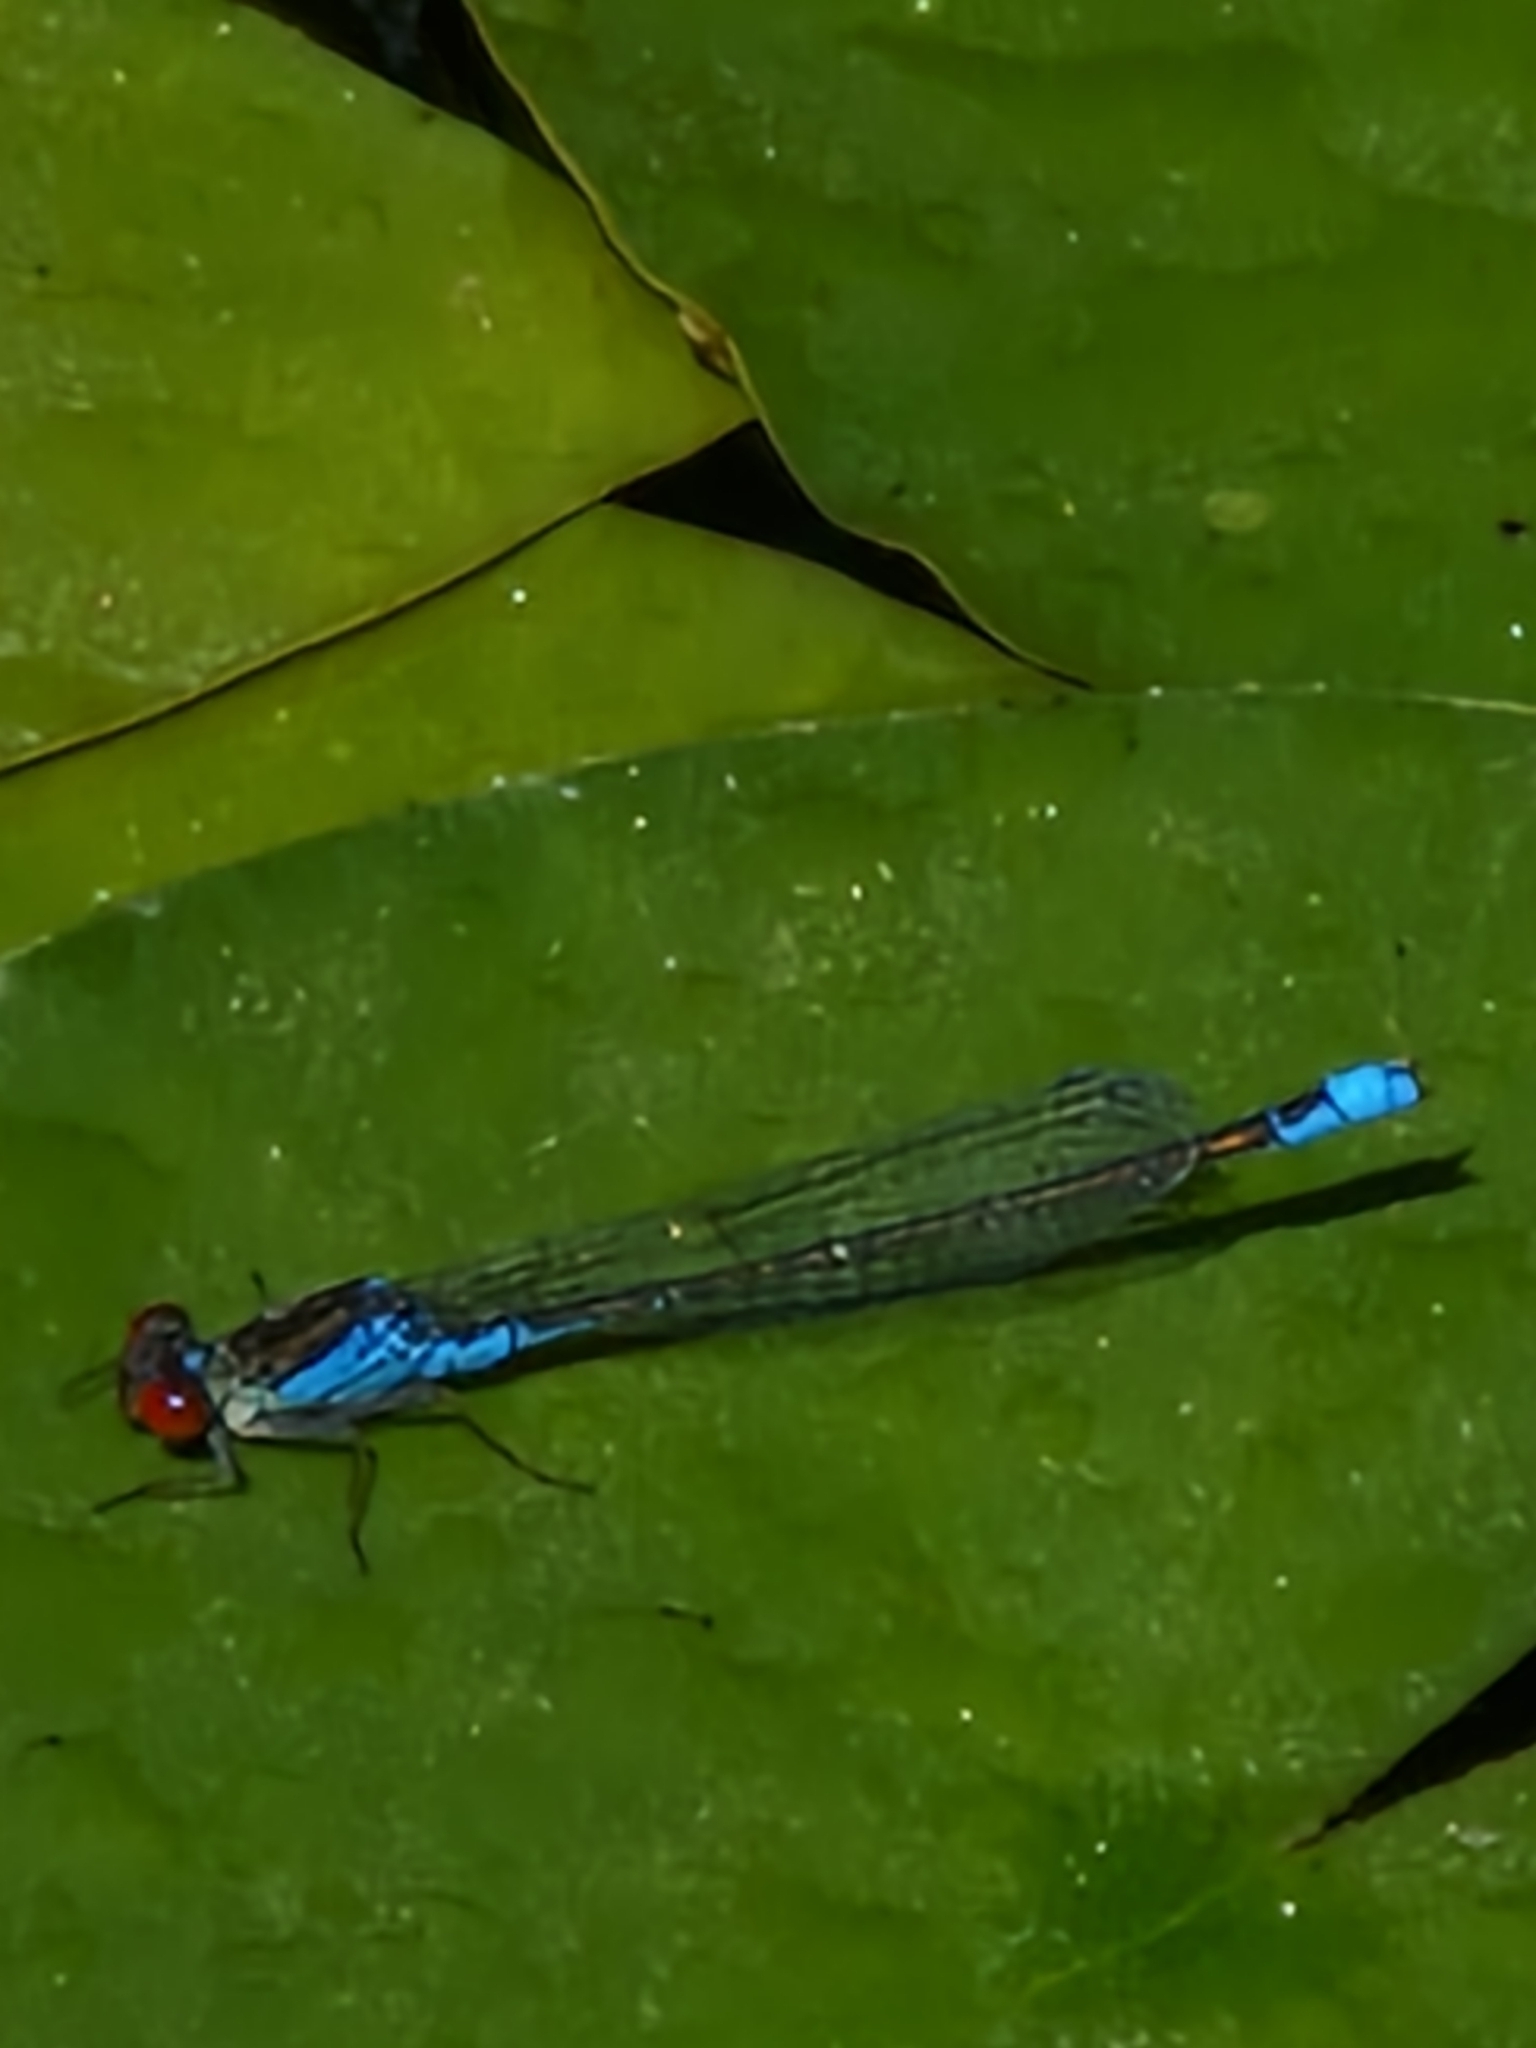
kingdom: Animalia
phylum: Arthropoda
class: Insecta
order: Odonata
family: Coenagrionidae
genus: Erythromma
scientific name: Erythromma viridulum
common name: Small red-eyed damselfly
